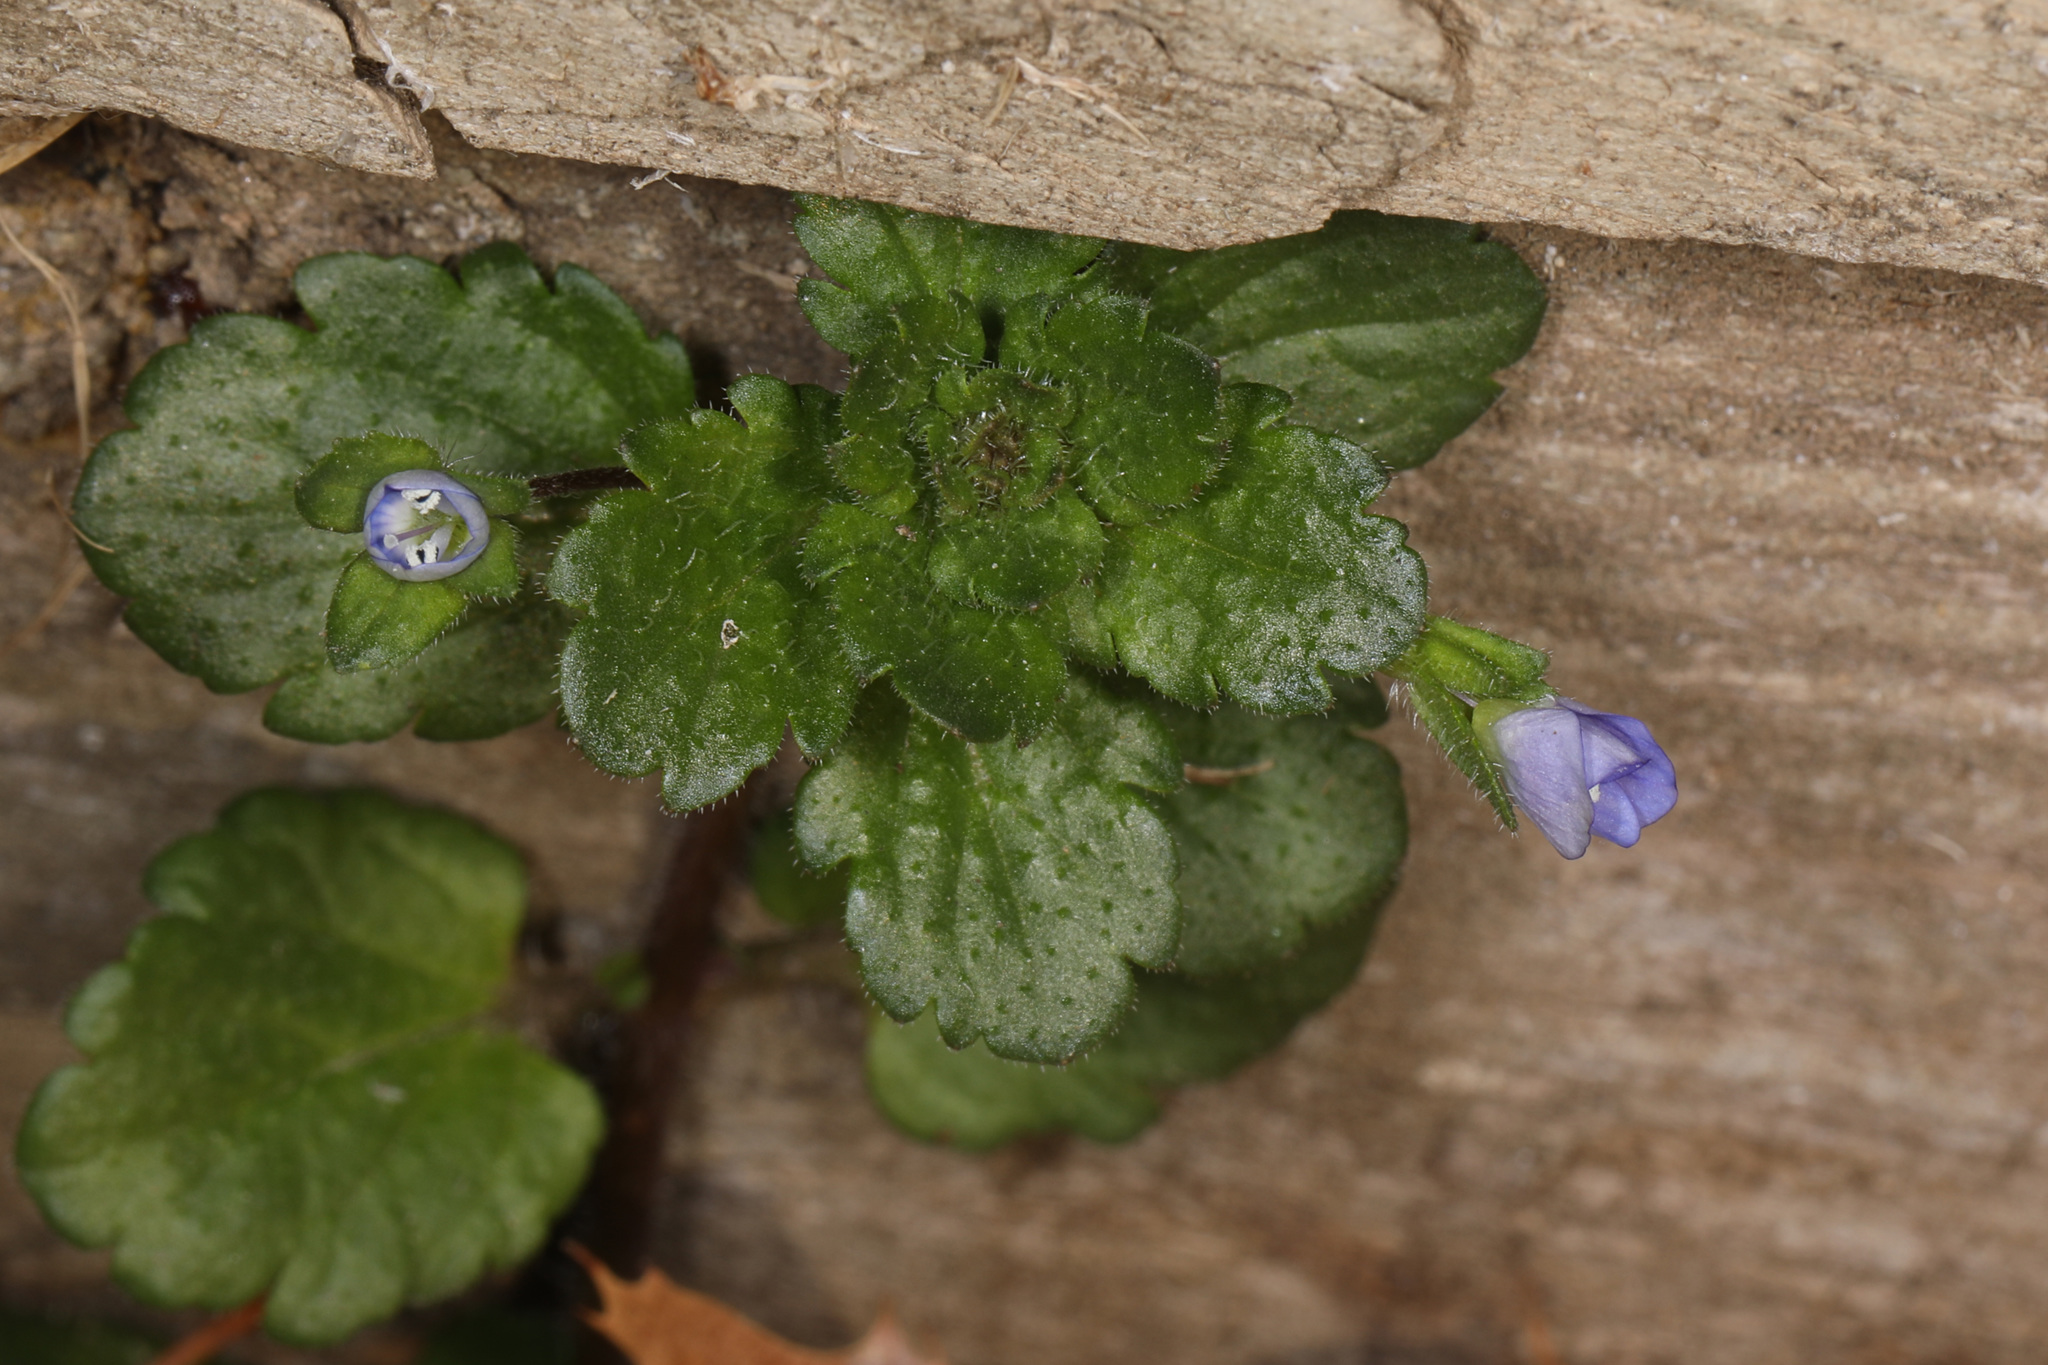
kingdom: Plantae
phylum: Tracheophyta
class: Magnoliopsida
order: Lamiales
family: Plantaginaceae
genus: Veronica
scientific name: Veronica persica
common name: Common field-speedwell
